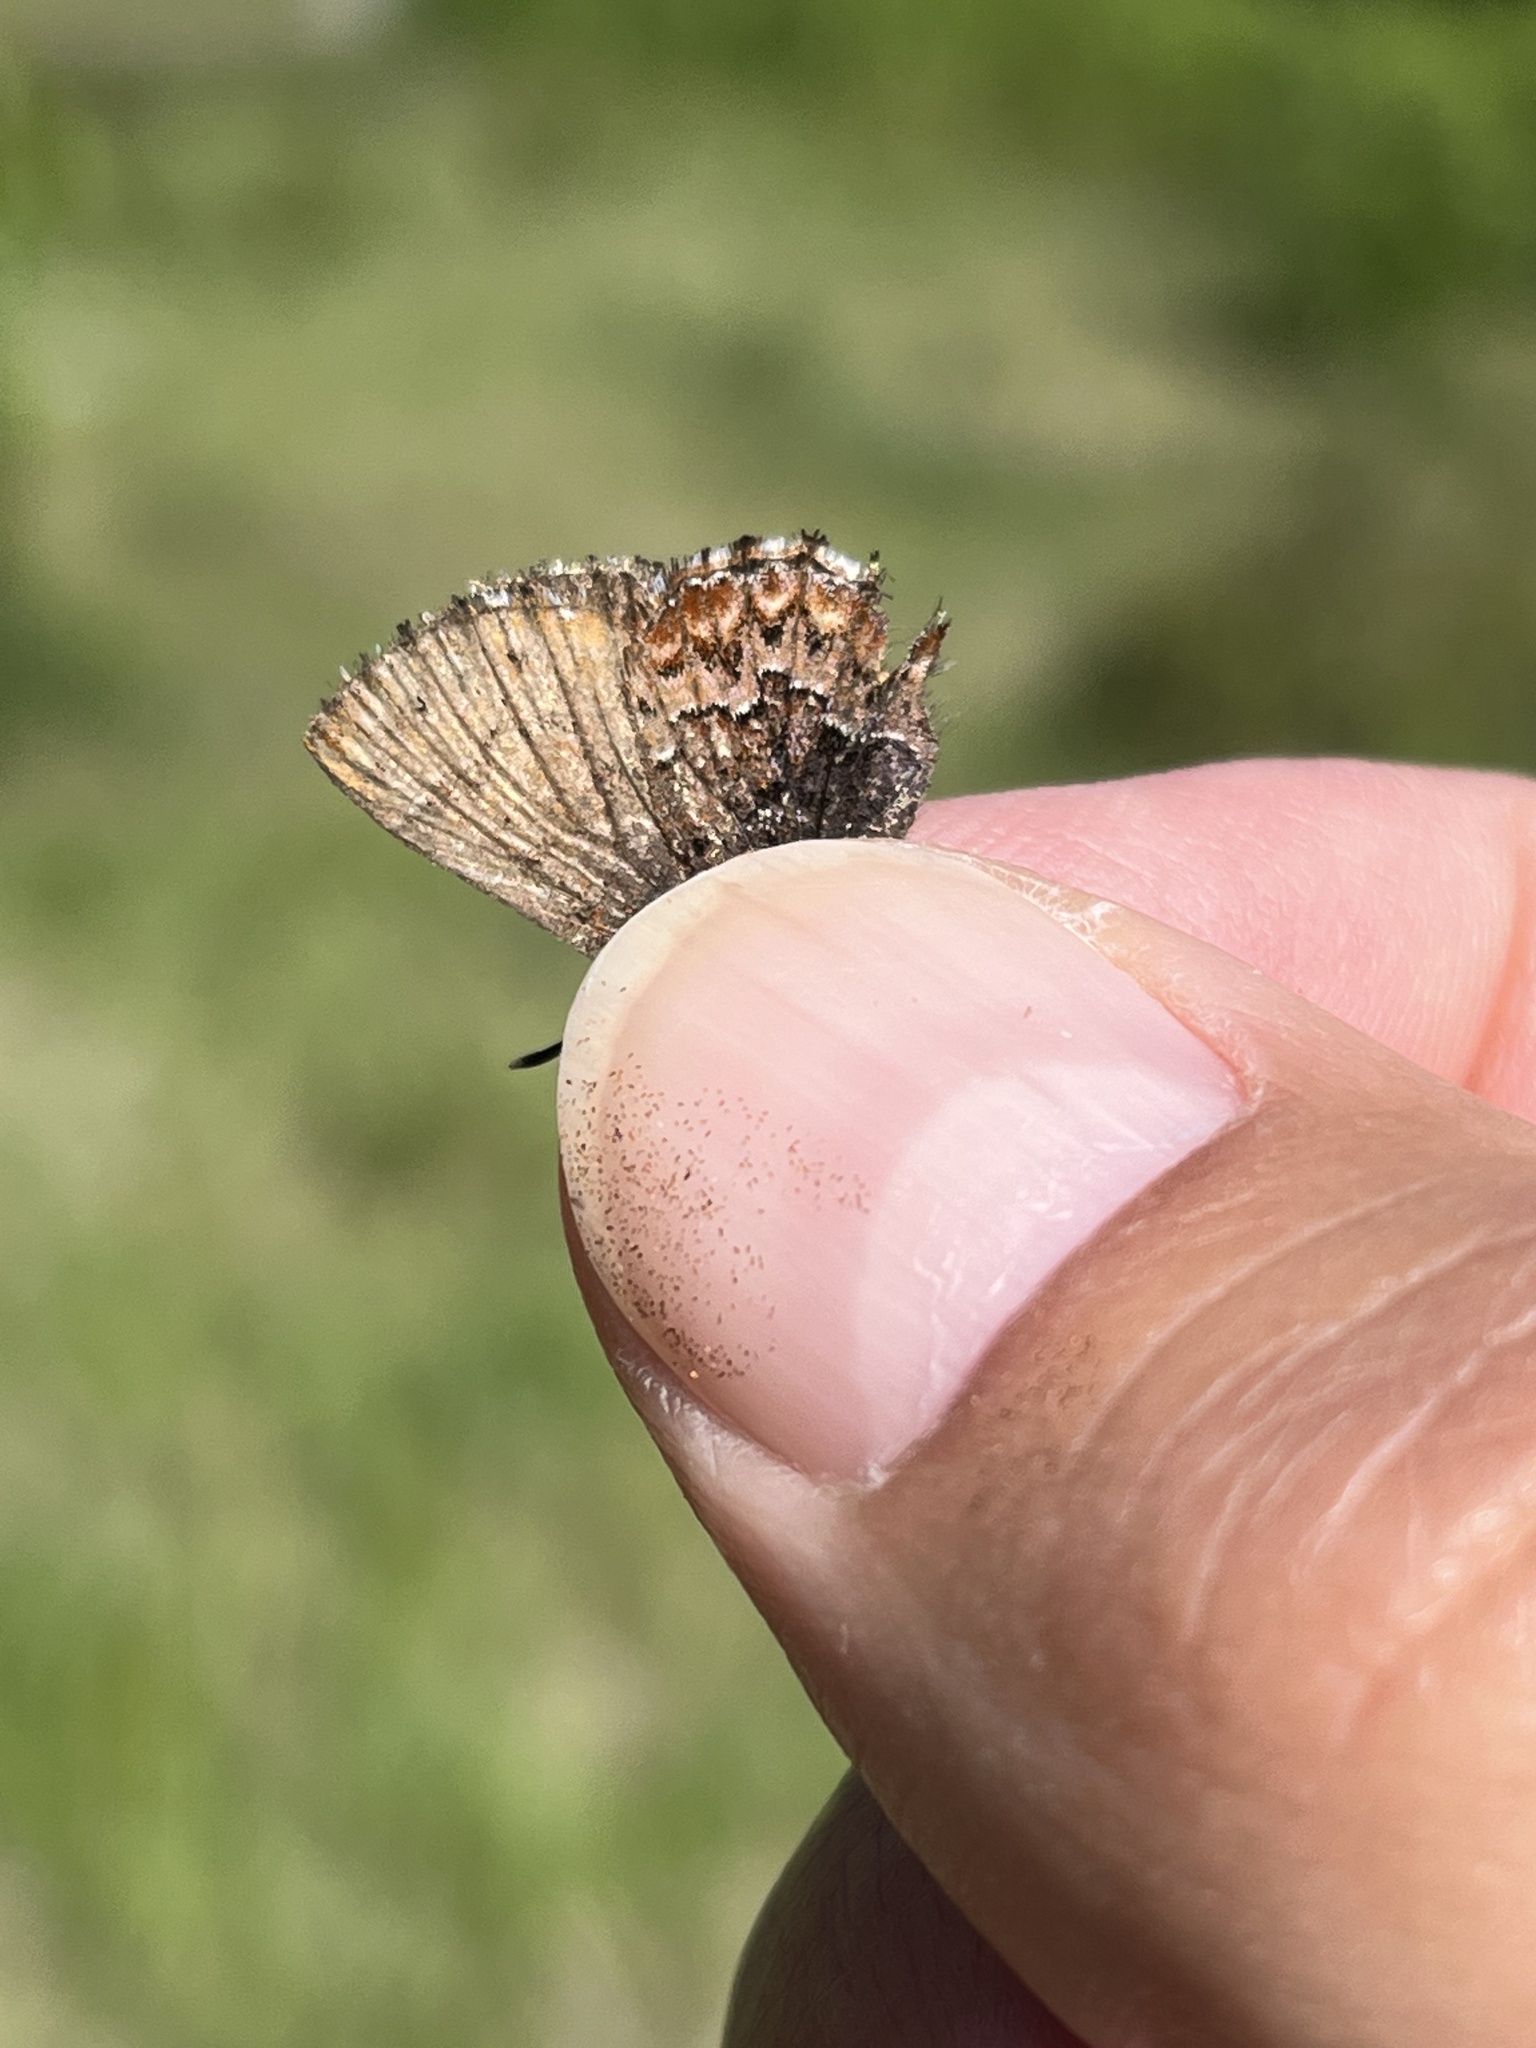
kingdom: Animalia
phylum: Arthropoda
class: Insecta
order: Lepidoptera
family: Lycaenidae
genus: Incisalia
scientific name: Incisalia eryphon
